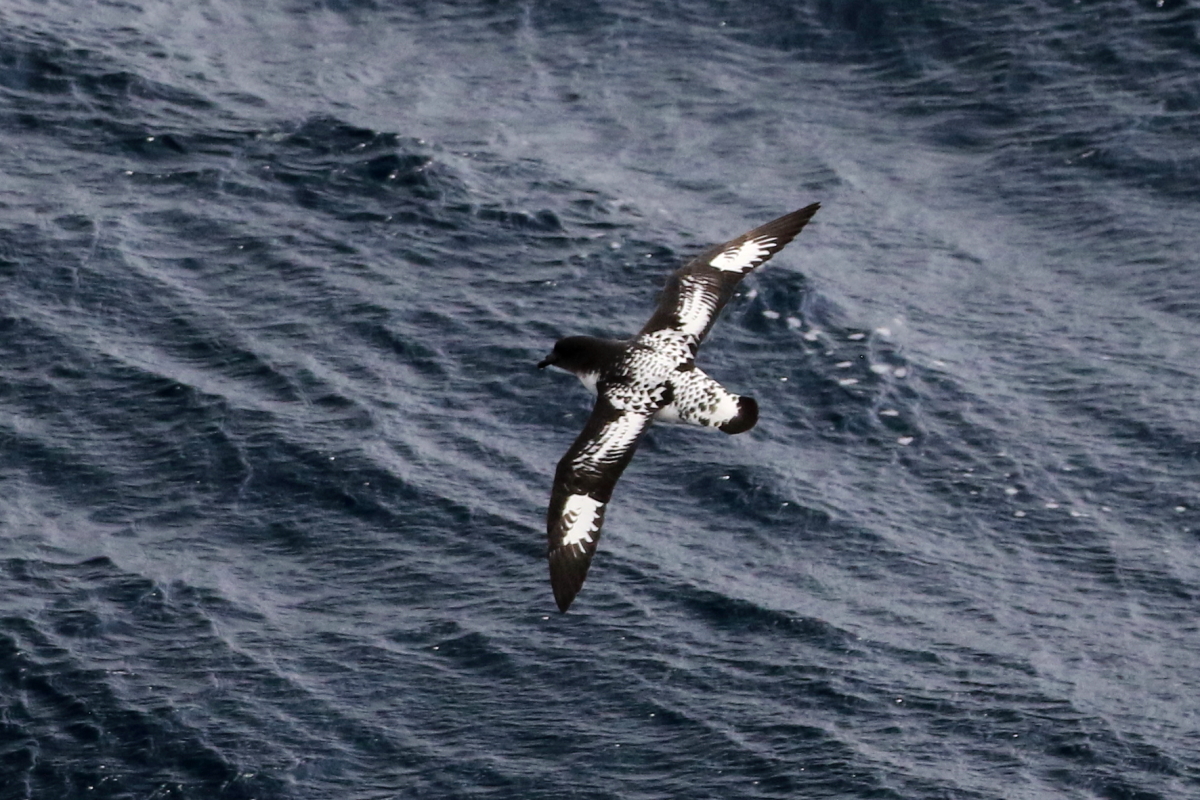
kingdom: Animalia
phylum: Chordata
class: Aves
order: Procellariiformes
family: Procellariidae
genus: Daption
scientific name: Daption capense
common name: Cape petrel
